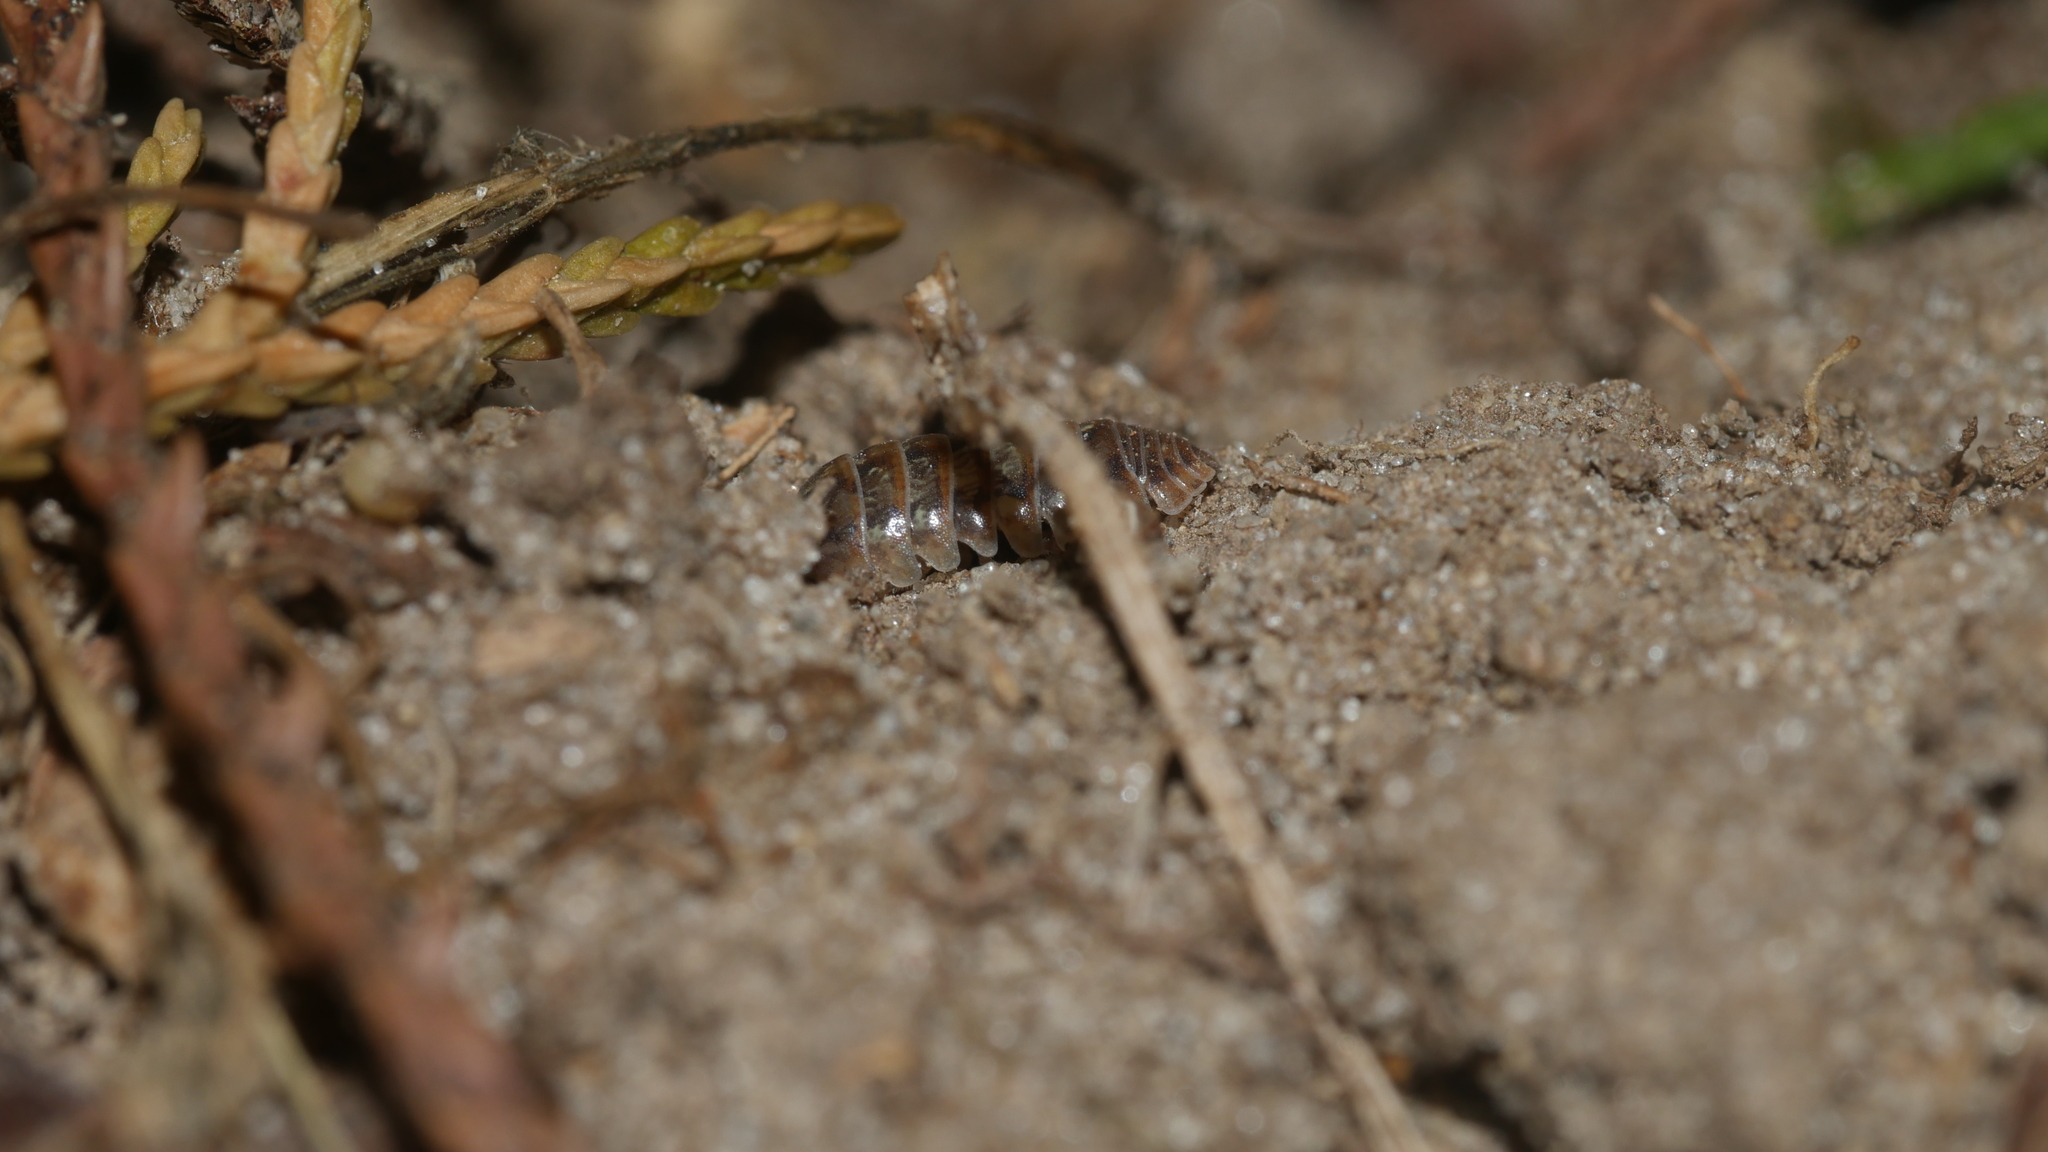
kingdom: Animalia
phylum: Arthropoda
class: Malacostraca
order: Isopoda
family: Armadillidiidae
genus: Armadillidium
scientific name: Armadillidium vulgare
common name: Common pill woodlouse
